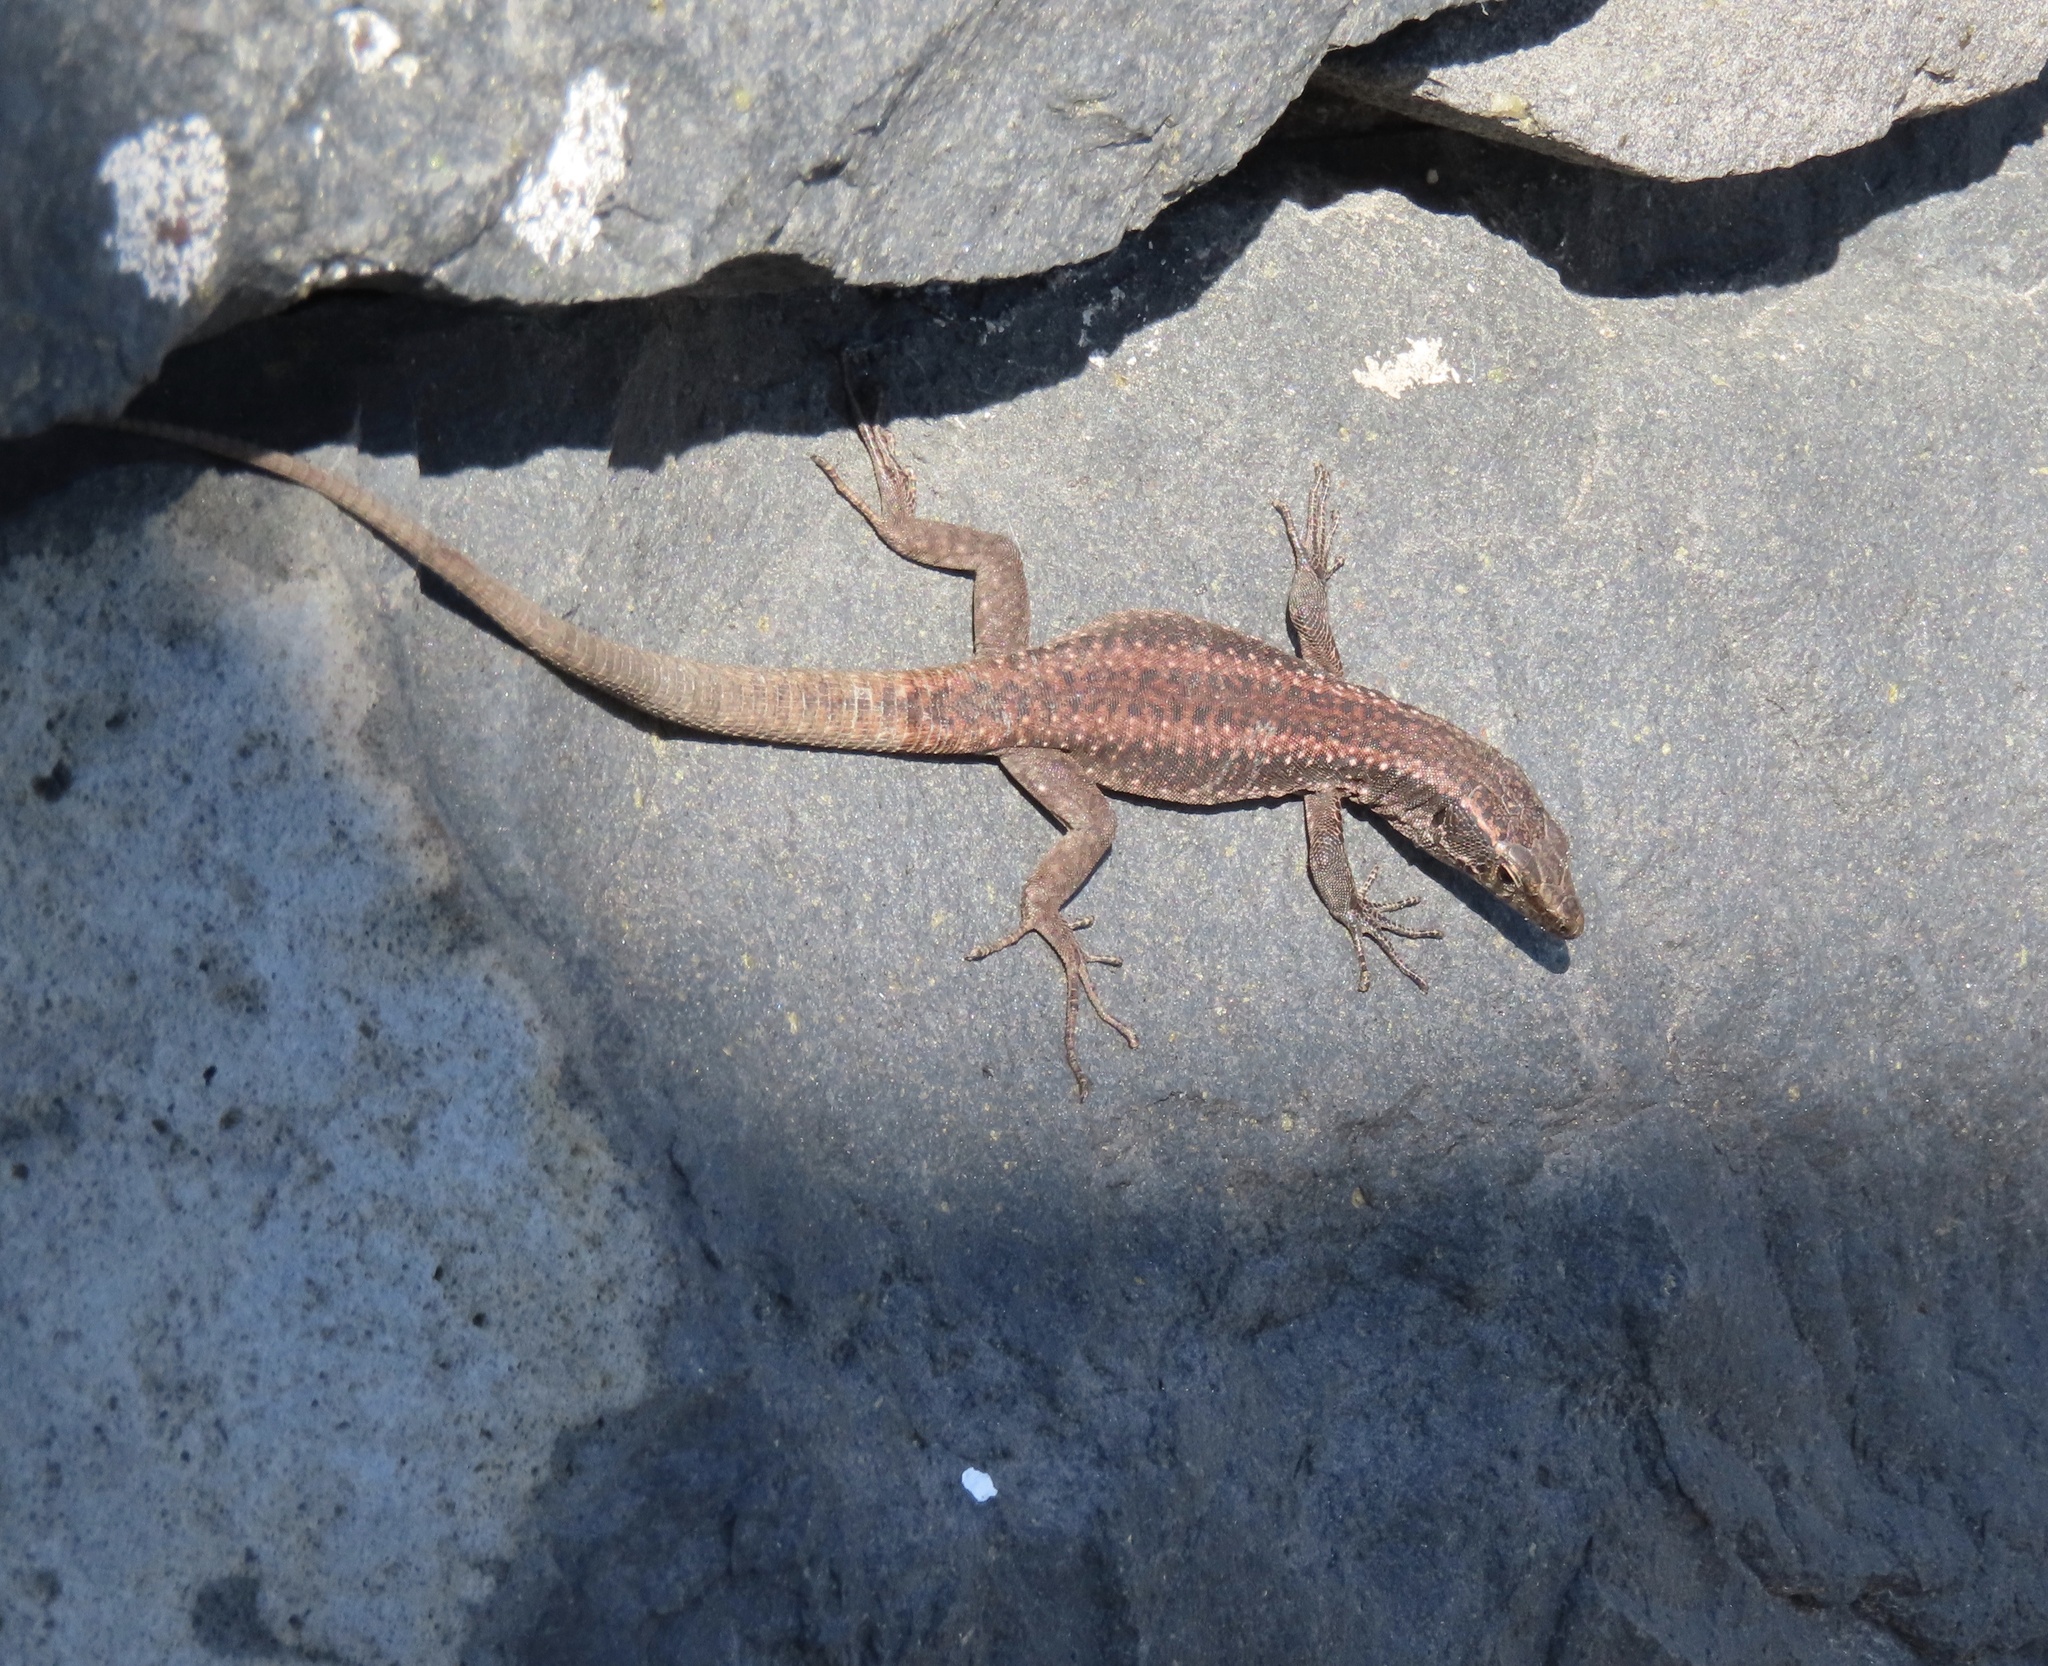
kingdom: Animalia
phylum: Chordata
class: Squamata
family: Lacertidae
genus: Teira
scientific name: Teira dugesii
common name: Madeira lizard
